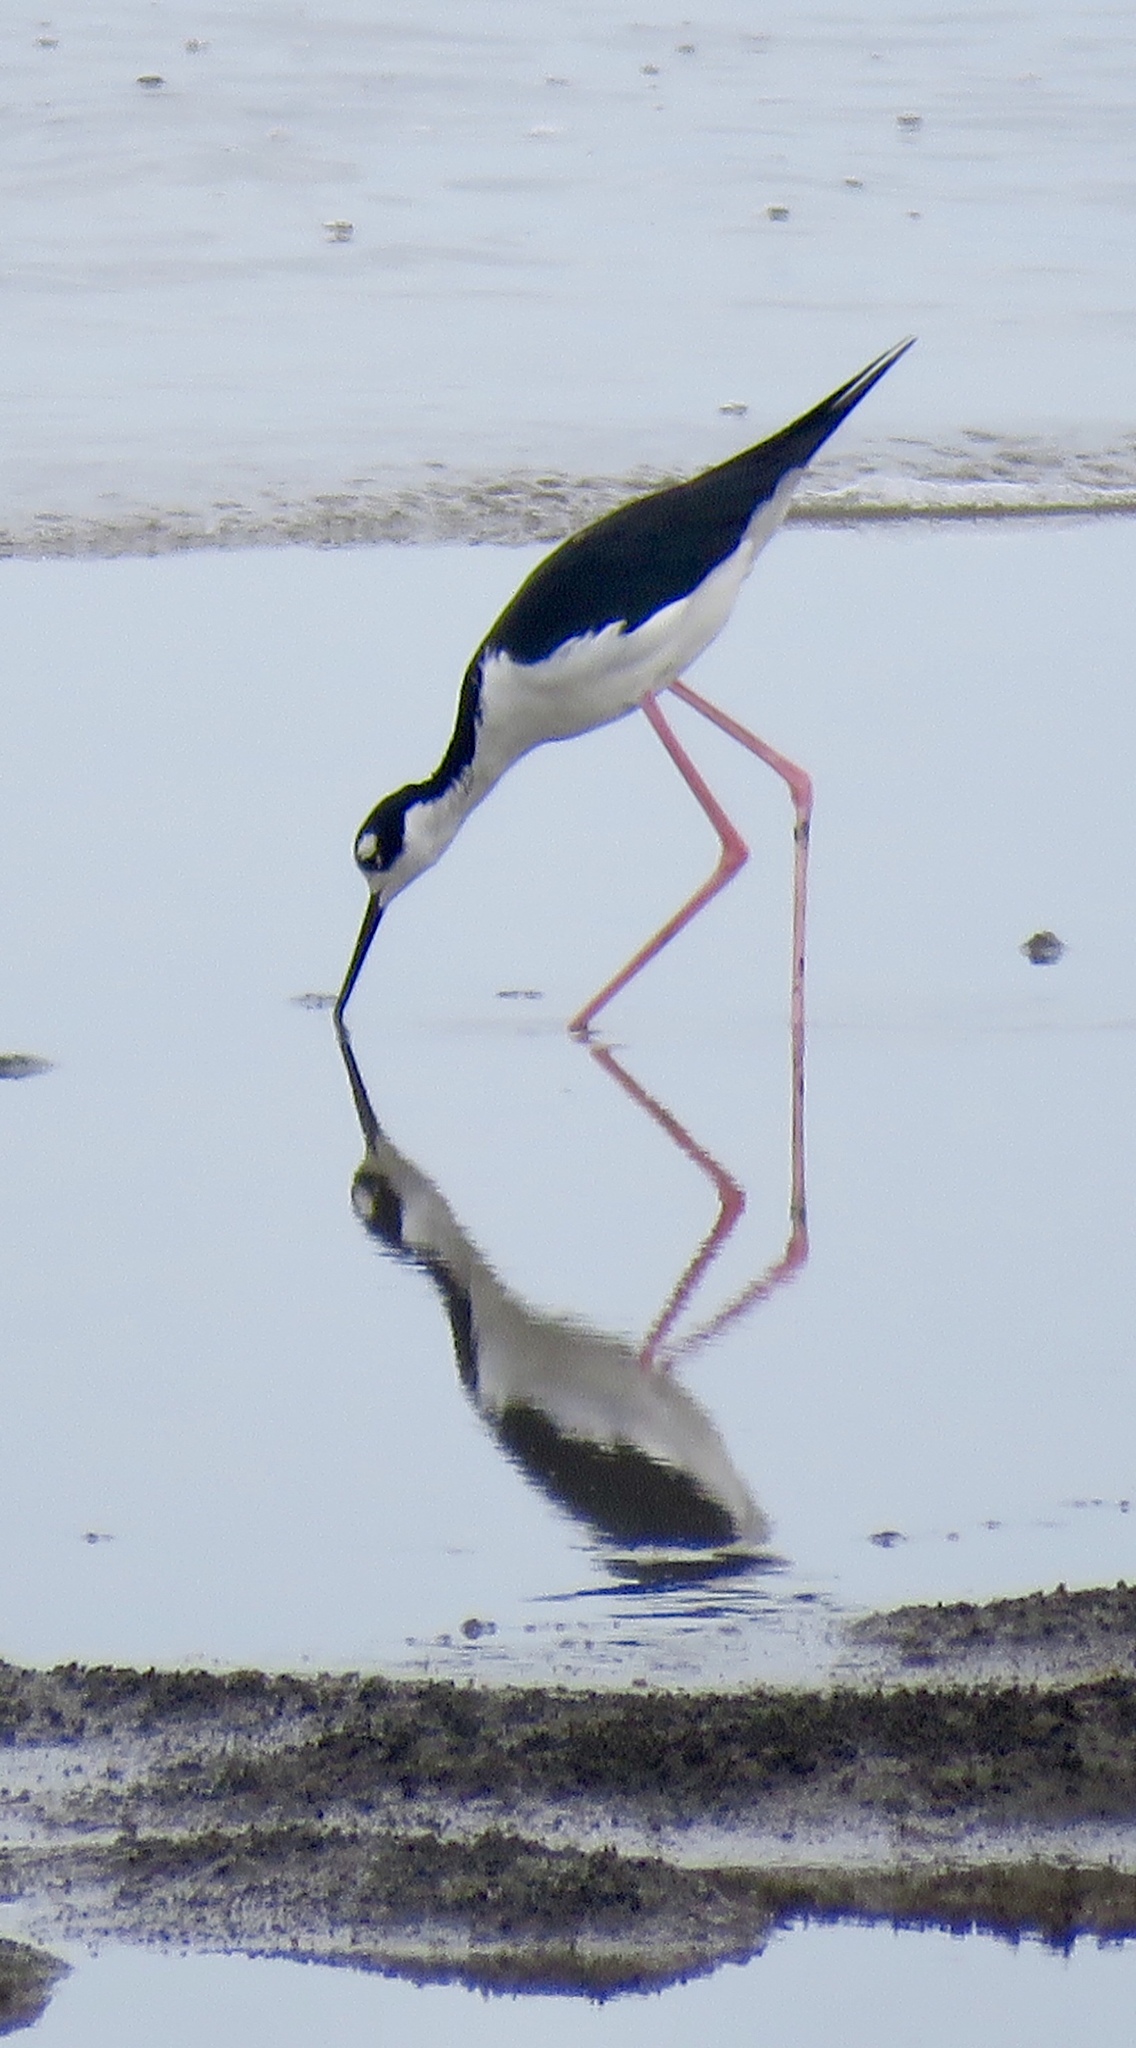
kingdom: Animalia
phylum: Chordata
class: Aves
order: Charadriiformes
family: Recurvirostridae
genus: Himantopus
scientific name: Himantopus mexicanus
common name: Black-necked stilt
